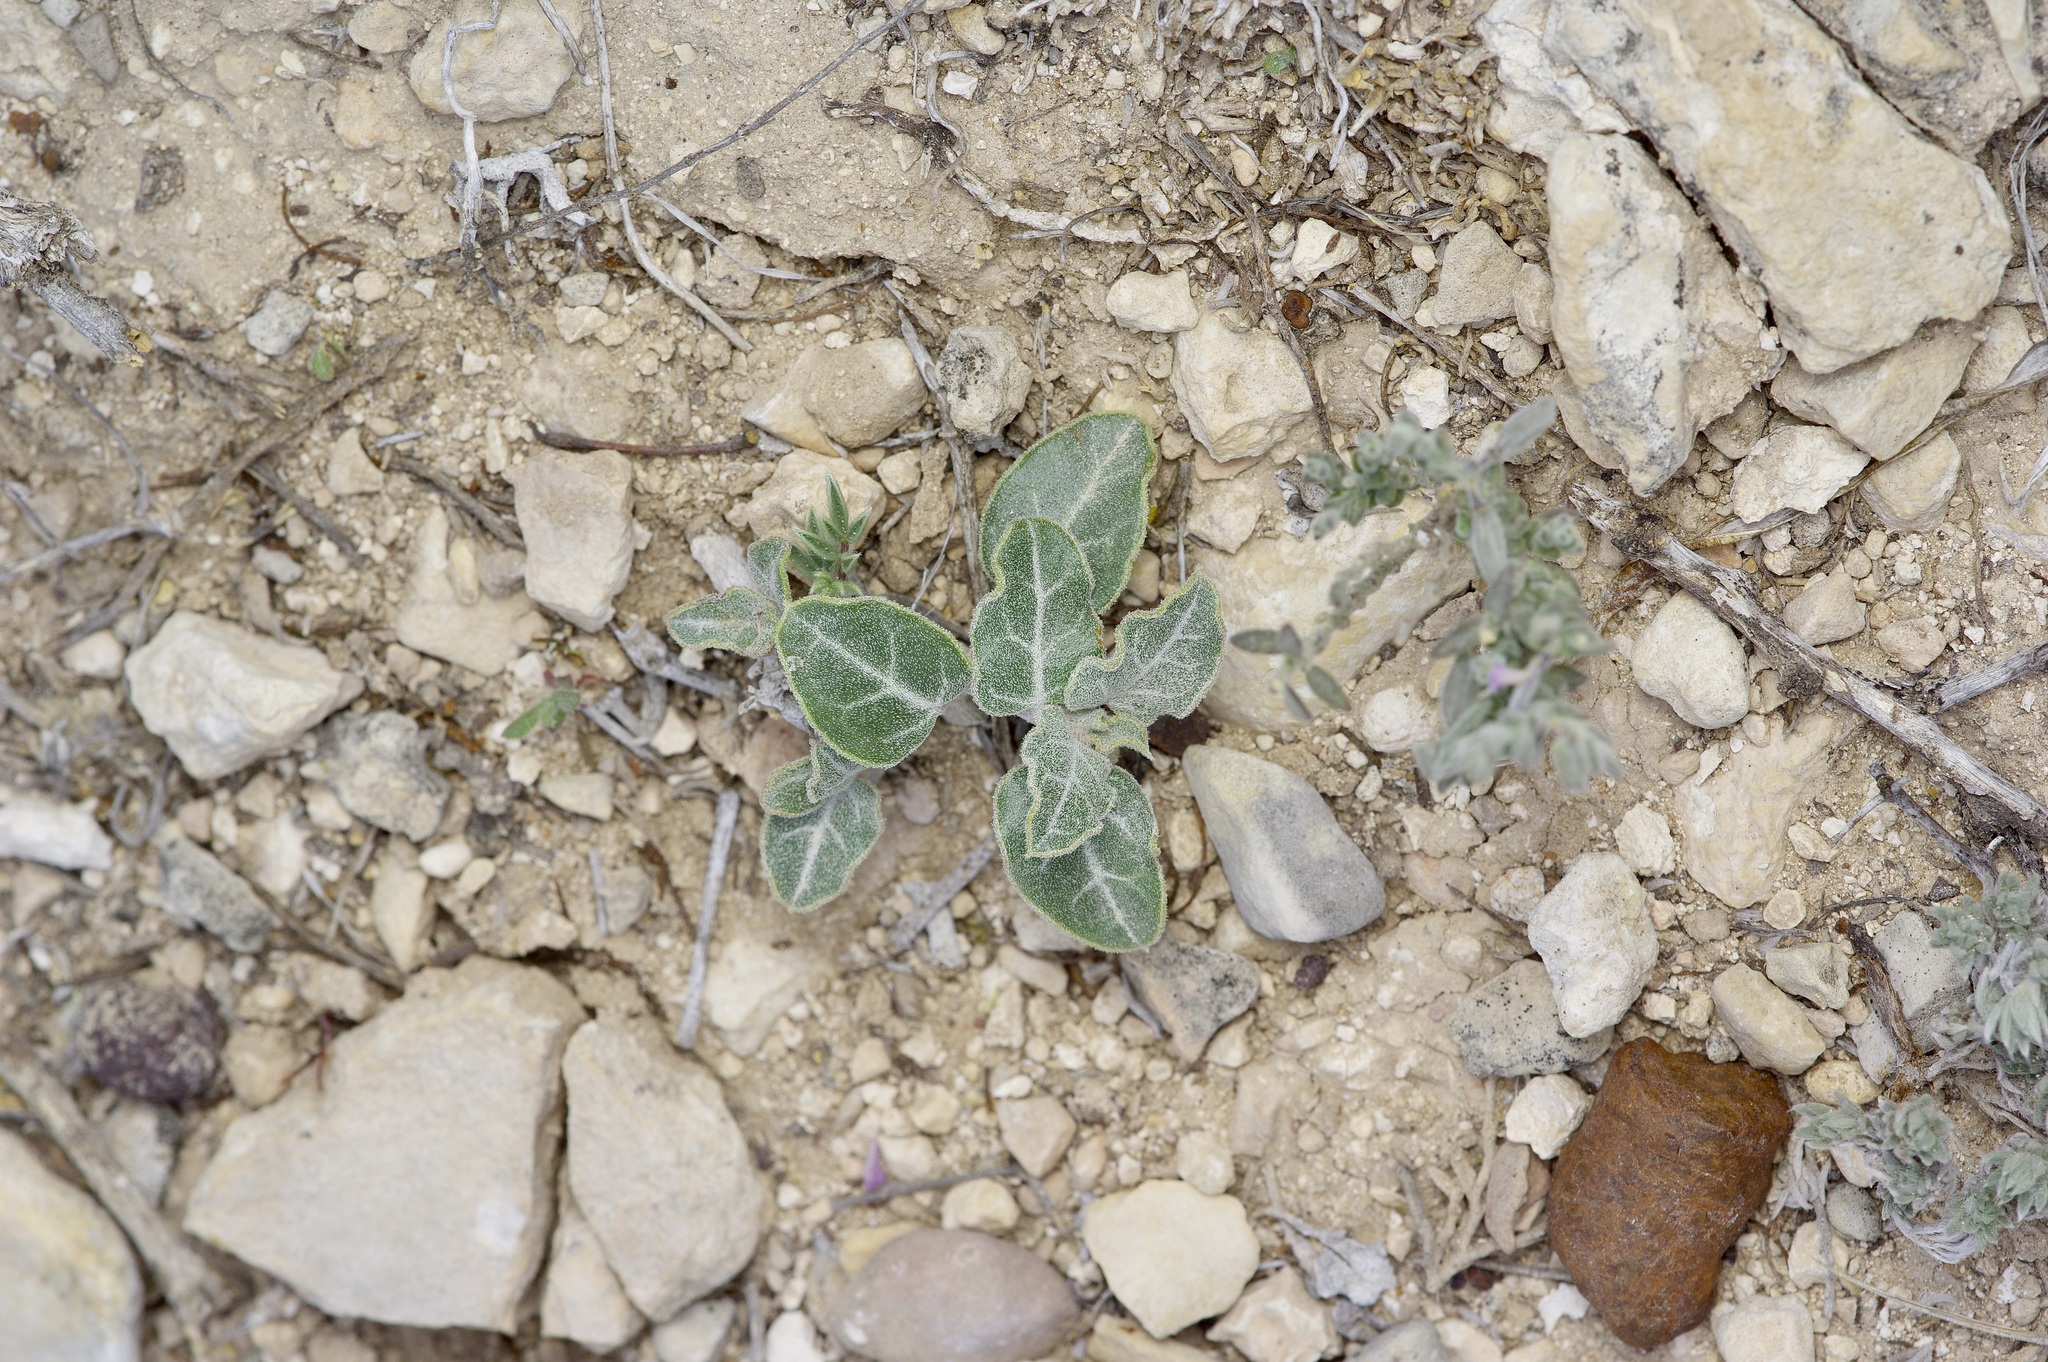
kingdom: Plantae
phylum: Tracheophyta
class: Magnoliopsida
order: Caryophyllales
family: Nyctaginaceae
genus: Acleisanthes
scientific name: Acleisanthes crassifolia
